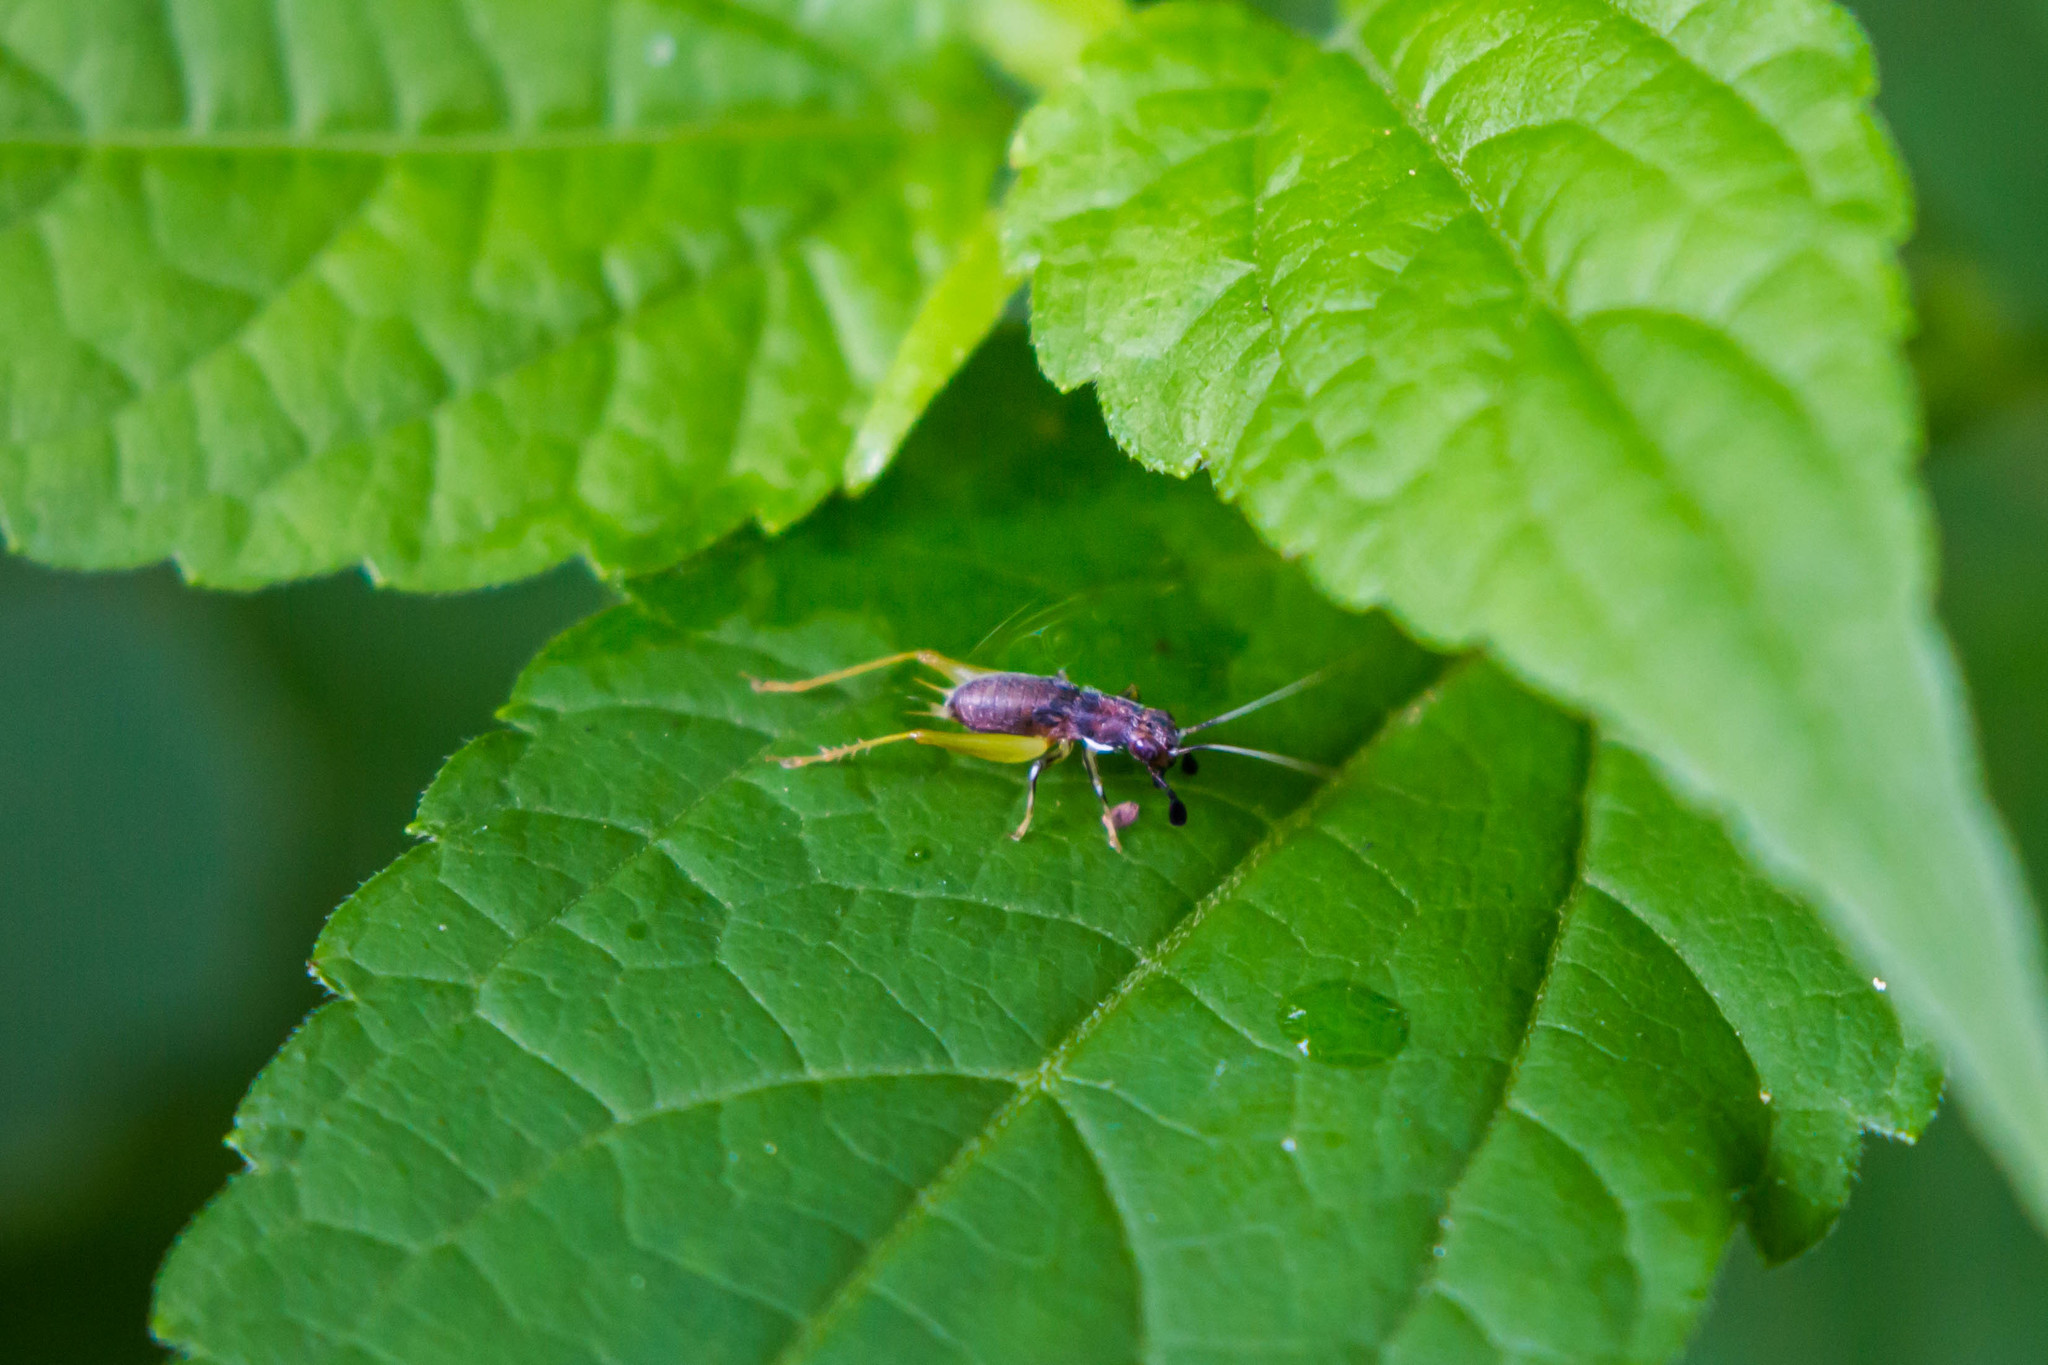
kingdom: Animalia
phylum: Arthropoda
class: Insecta
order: Orthoptera
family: Trigonidiidae
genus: Phyllopalpus
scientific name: Phyllopalpus pulchellus
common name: Handsome trig
